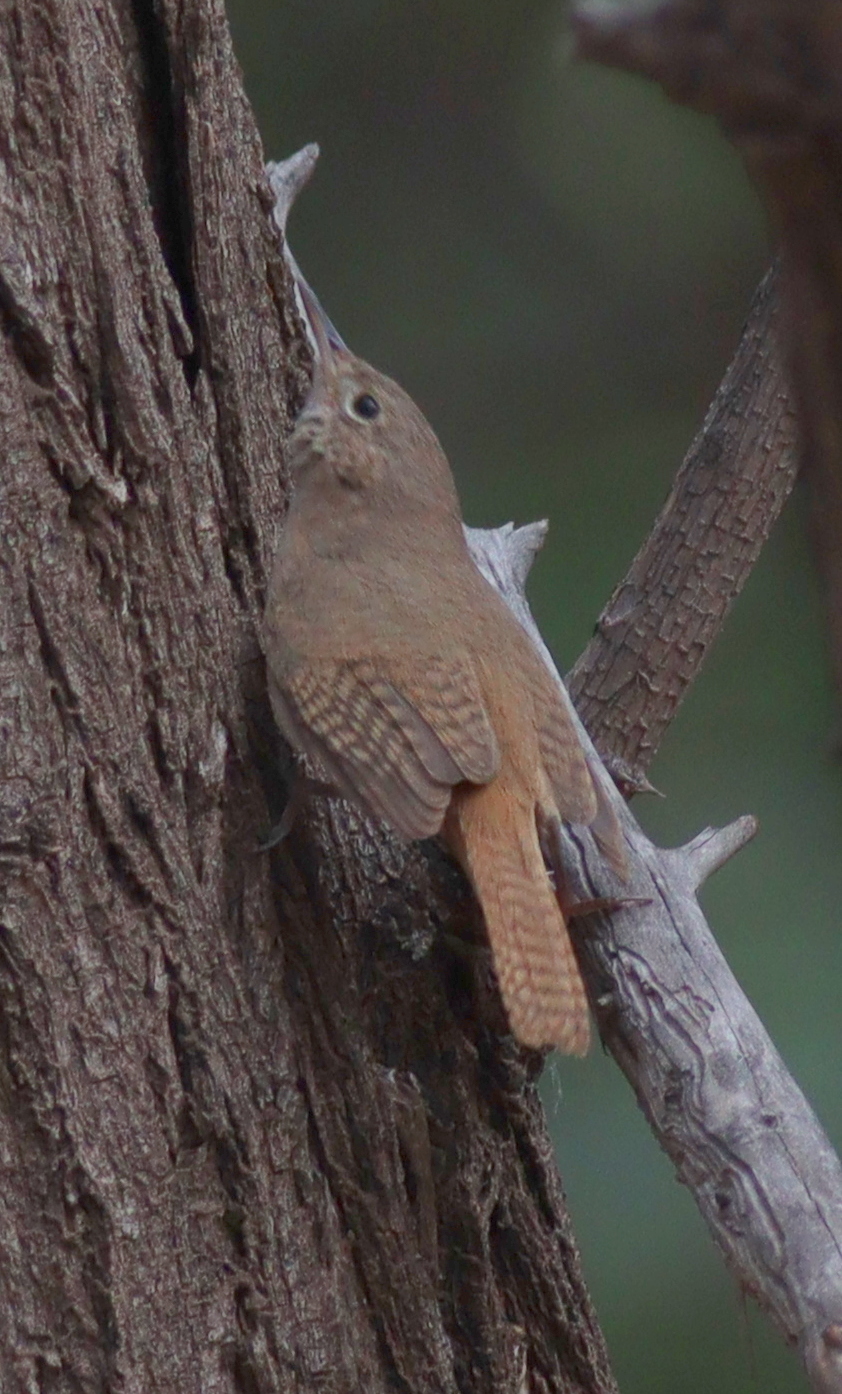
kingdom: Animalia
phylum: Chordata
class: Aves
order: Passeriformes
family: Troglodytidae
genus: Troglodytes
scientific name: Troglodytes aedon
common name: House wren
